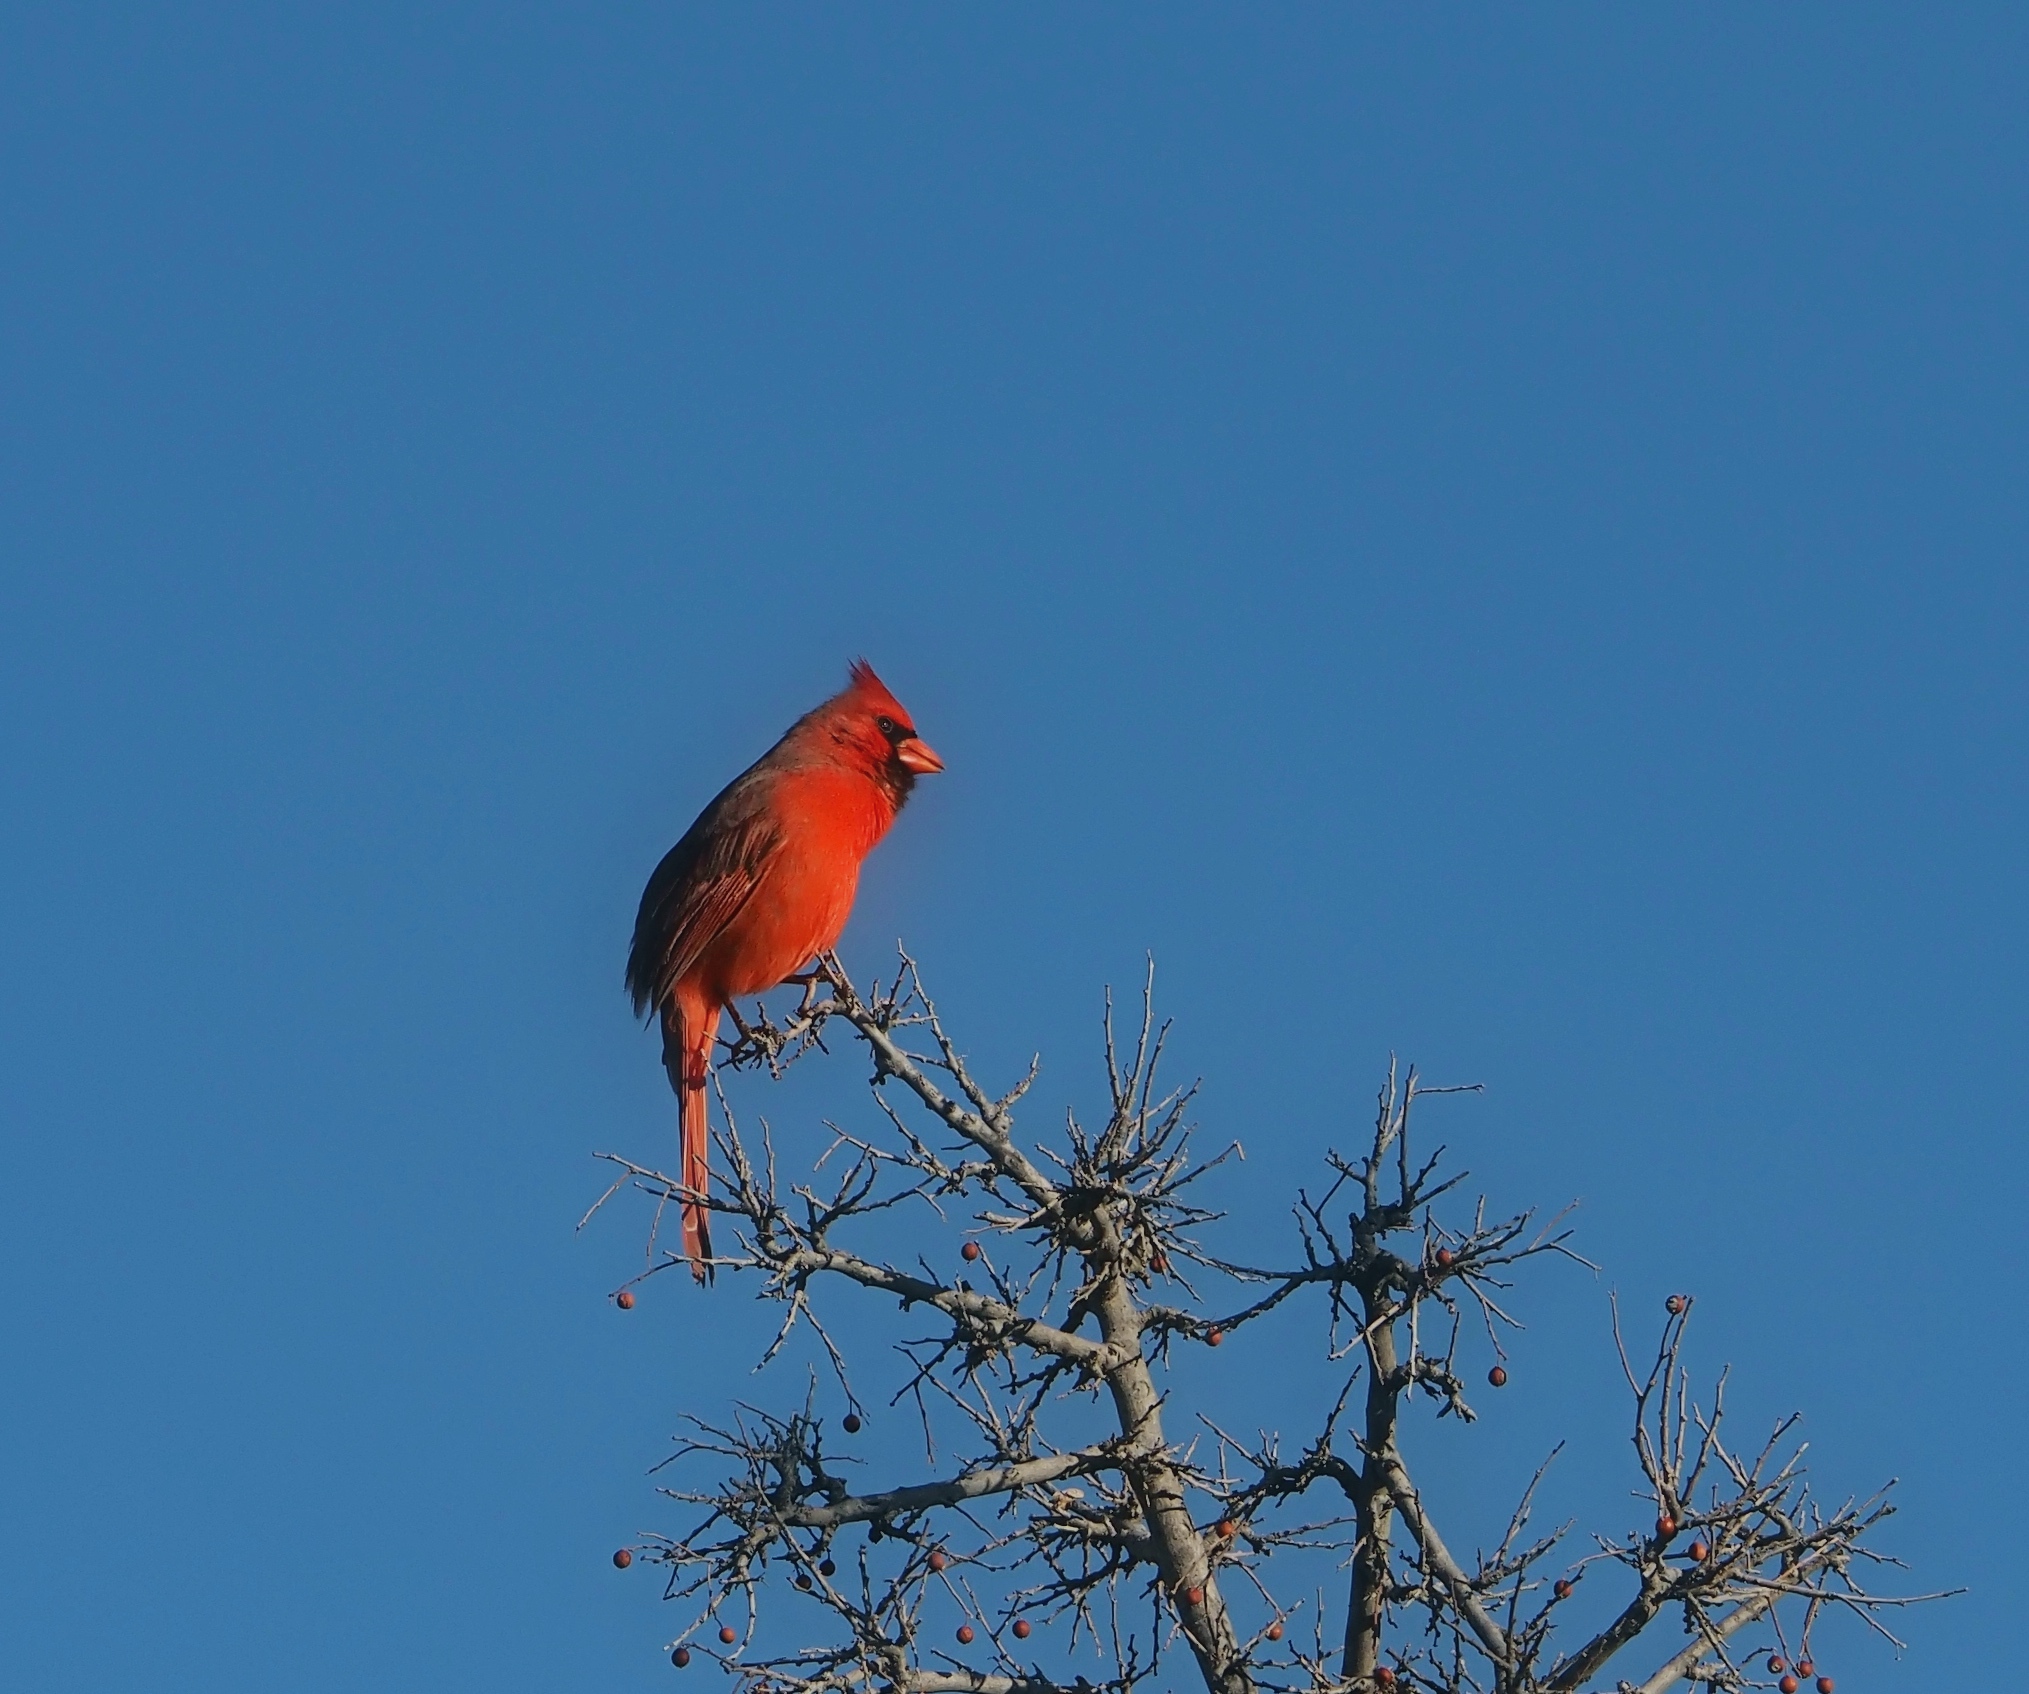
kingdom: Animalia
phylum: Chordata
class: Aves
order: Passeriformes
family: Cardinalidae
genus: Cardinalis
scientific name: Cardinalis cardinalis
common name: Northern cardinal
